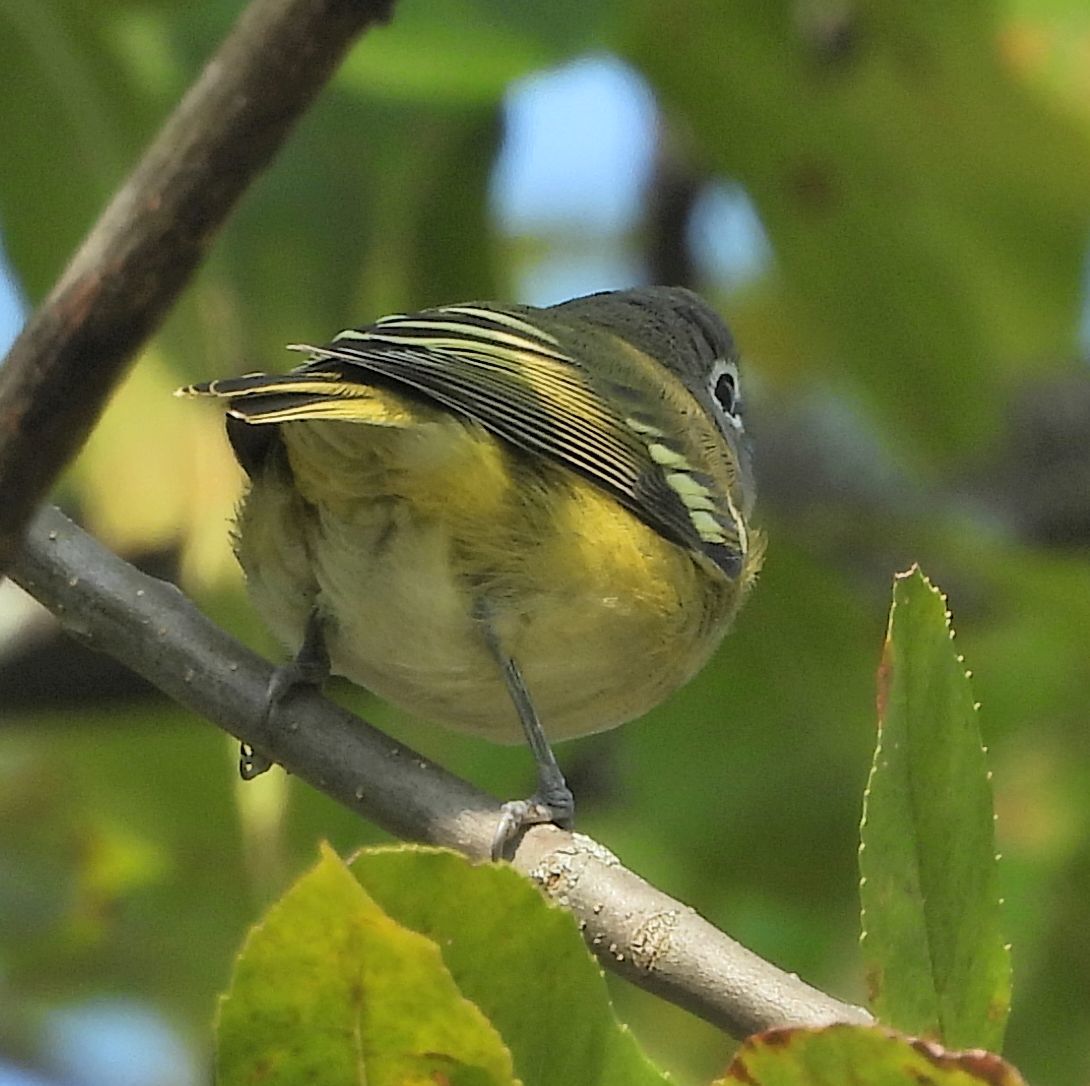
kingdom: Animalia
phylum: Chordata
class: Aves
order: Passeriformes
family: Vireonidae
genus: Vireo
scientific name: Vireo solitarius
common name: Blue-headed vireo
